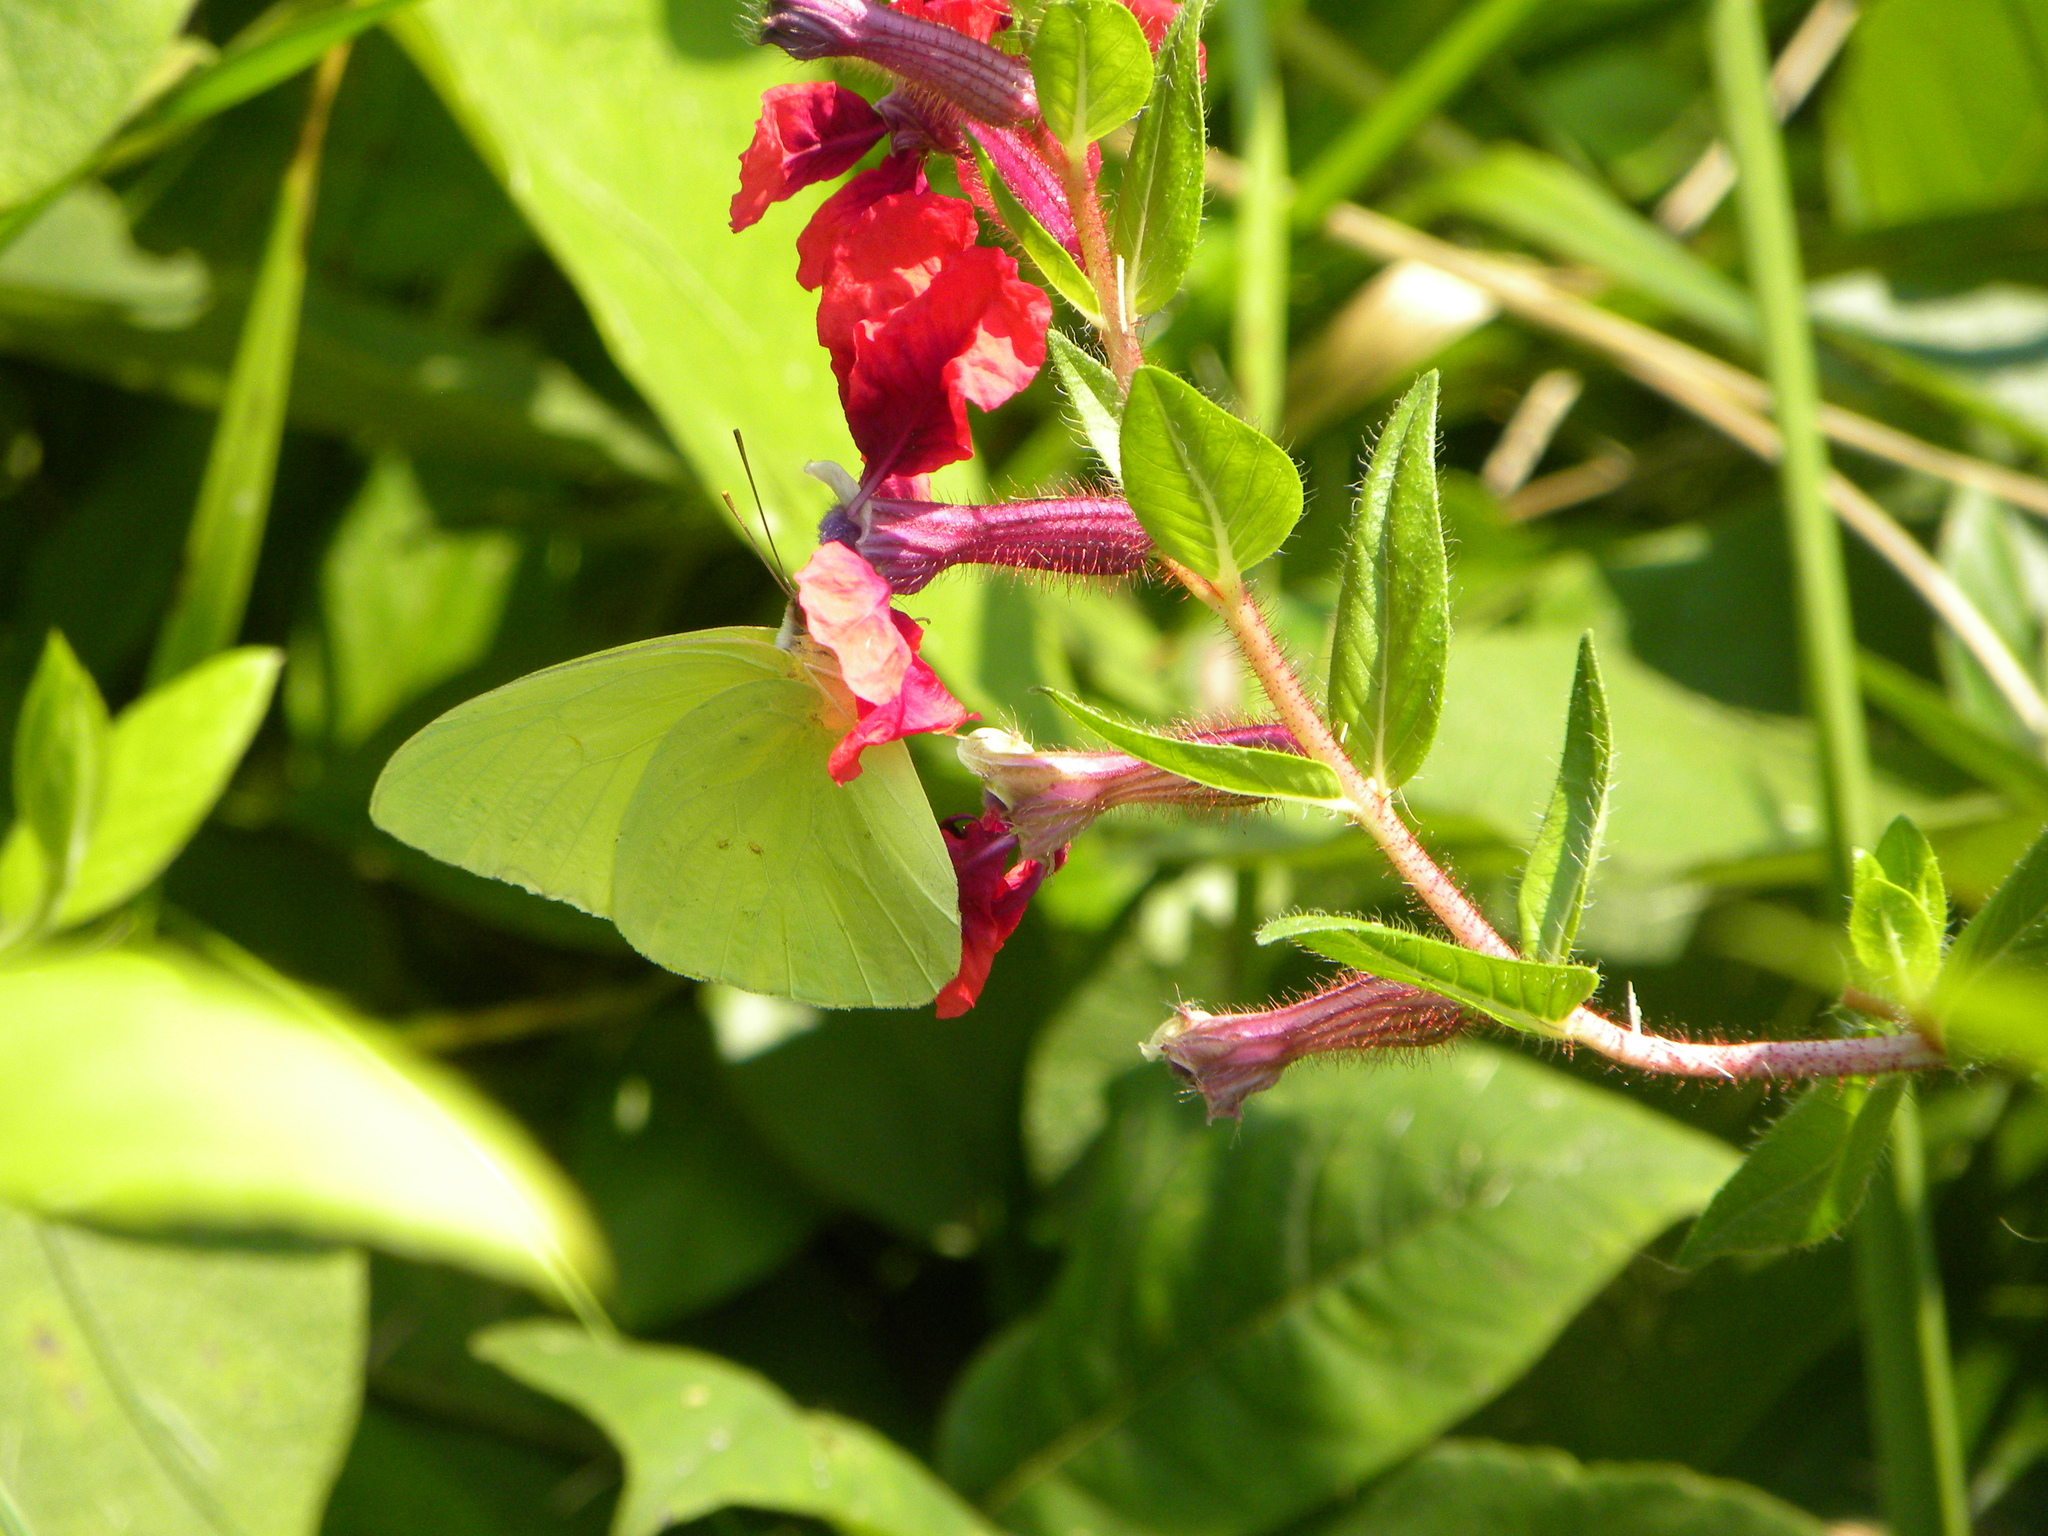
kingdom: Animalia
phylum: Arthropoda
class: Insecta
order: Lepidoptera
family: Pieridae
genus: Phoebis
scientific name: Phoebis sennae
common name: Cloudless sulphur
